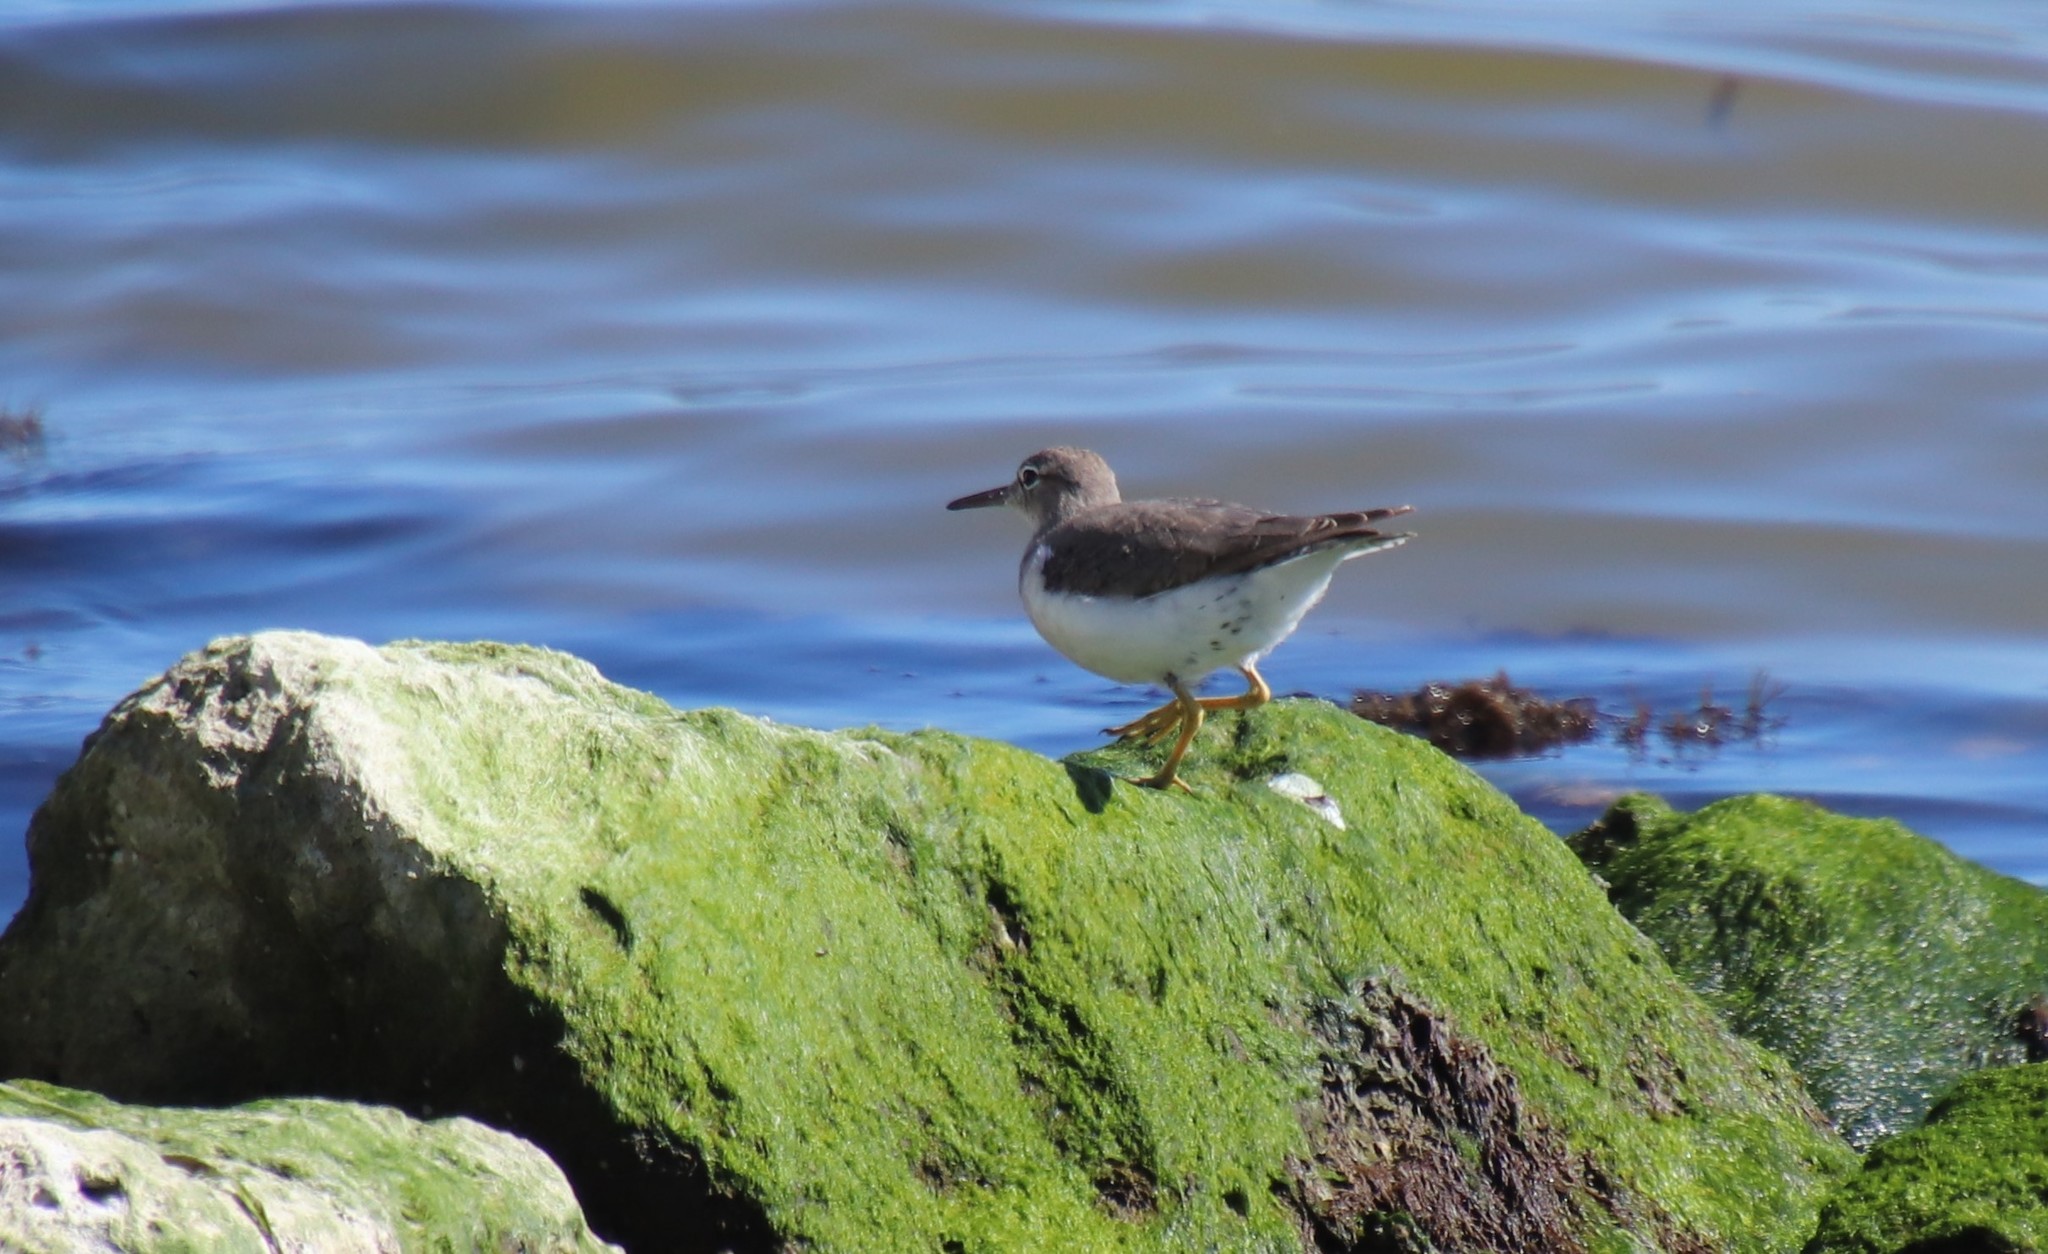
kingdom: Animalia
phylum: Chordata
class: Aves
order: Charadriiformes
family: Scolopacidae
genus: Actitis
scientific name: Actitis macularius
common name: Spotted sandpiper
